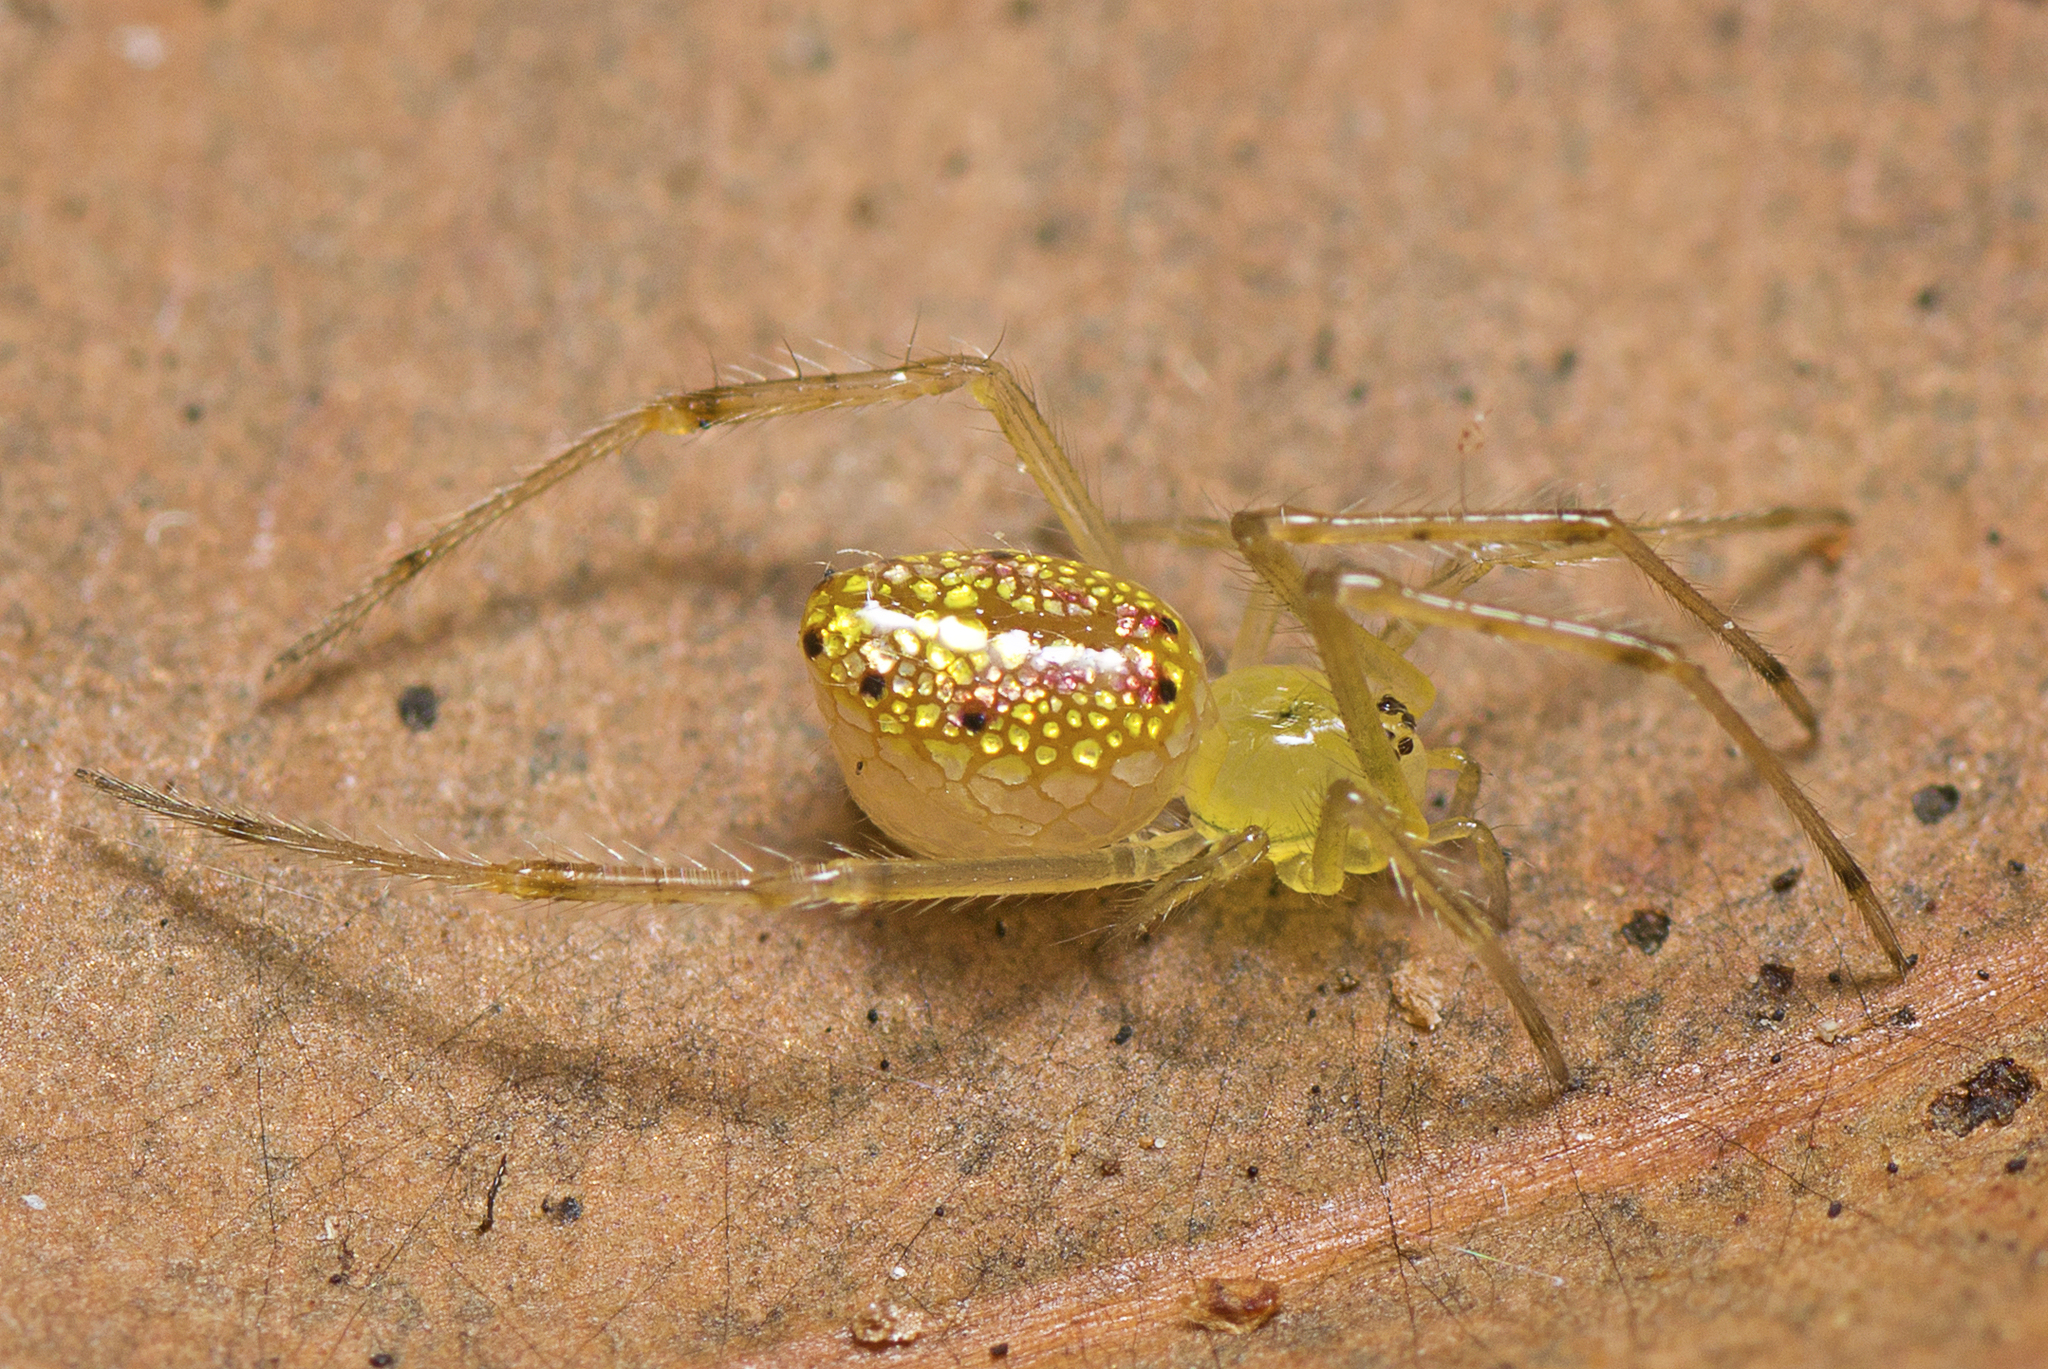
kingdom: Animalia
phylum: Arthropoda
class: Arachnida
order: Araneae
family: Theridiidae
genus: Thwaitesia
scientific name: Thwaitesia nigronodosa
